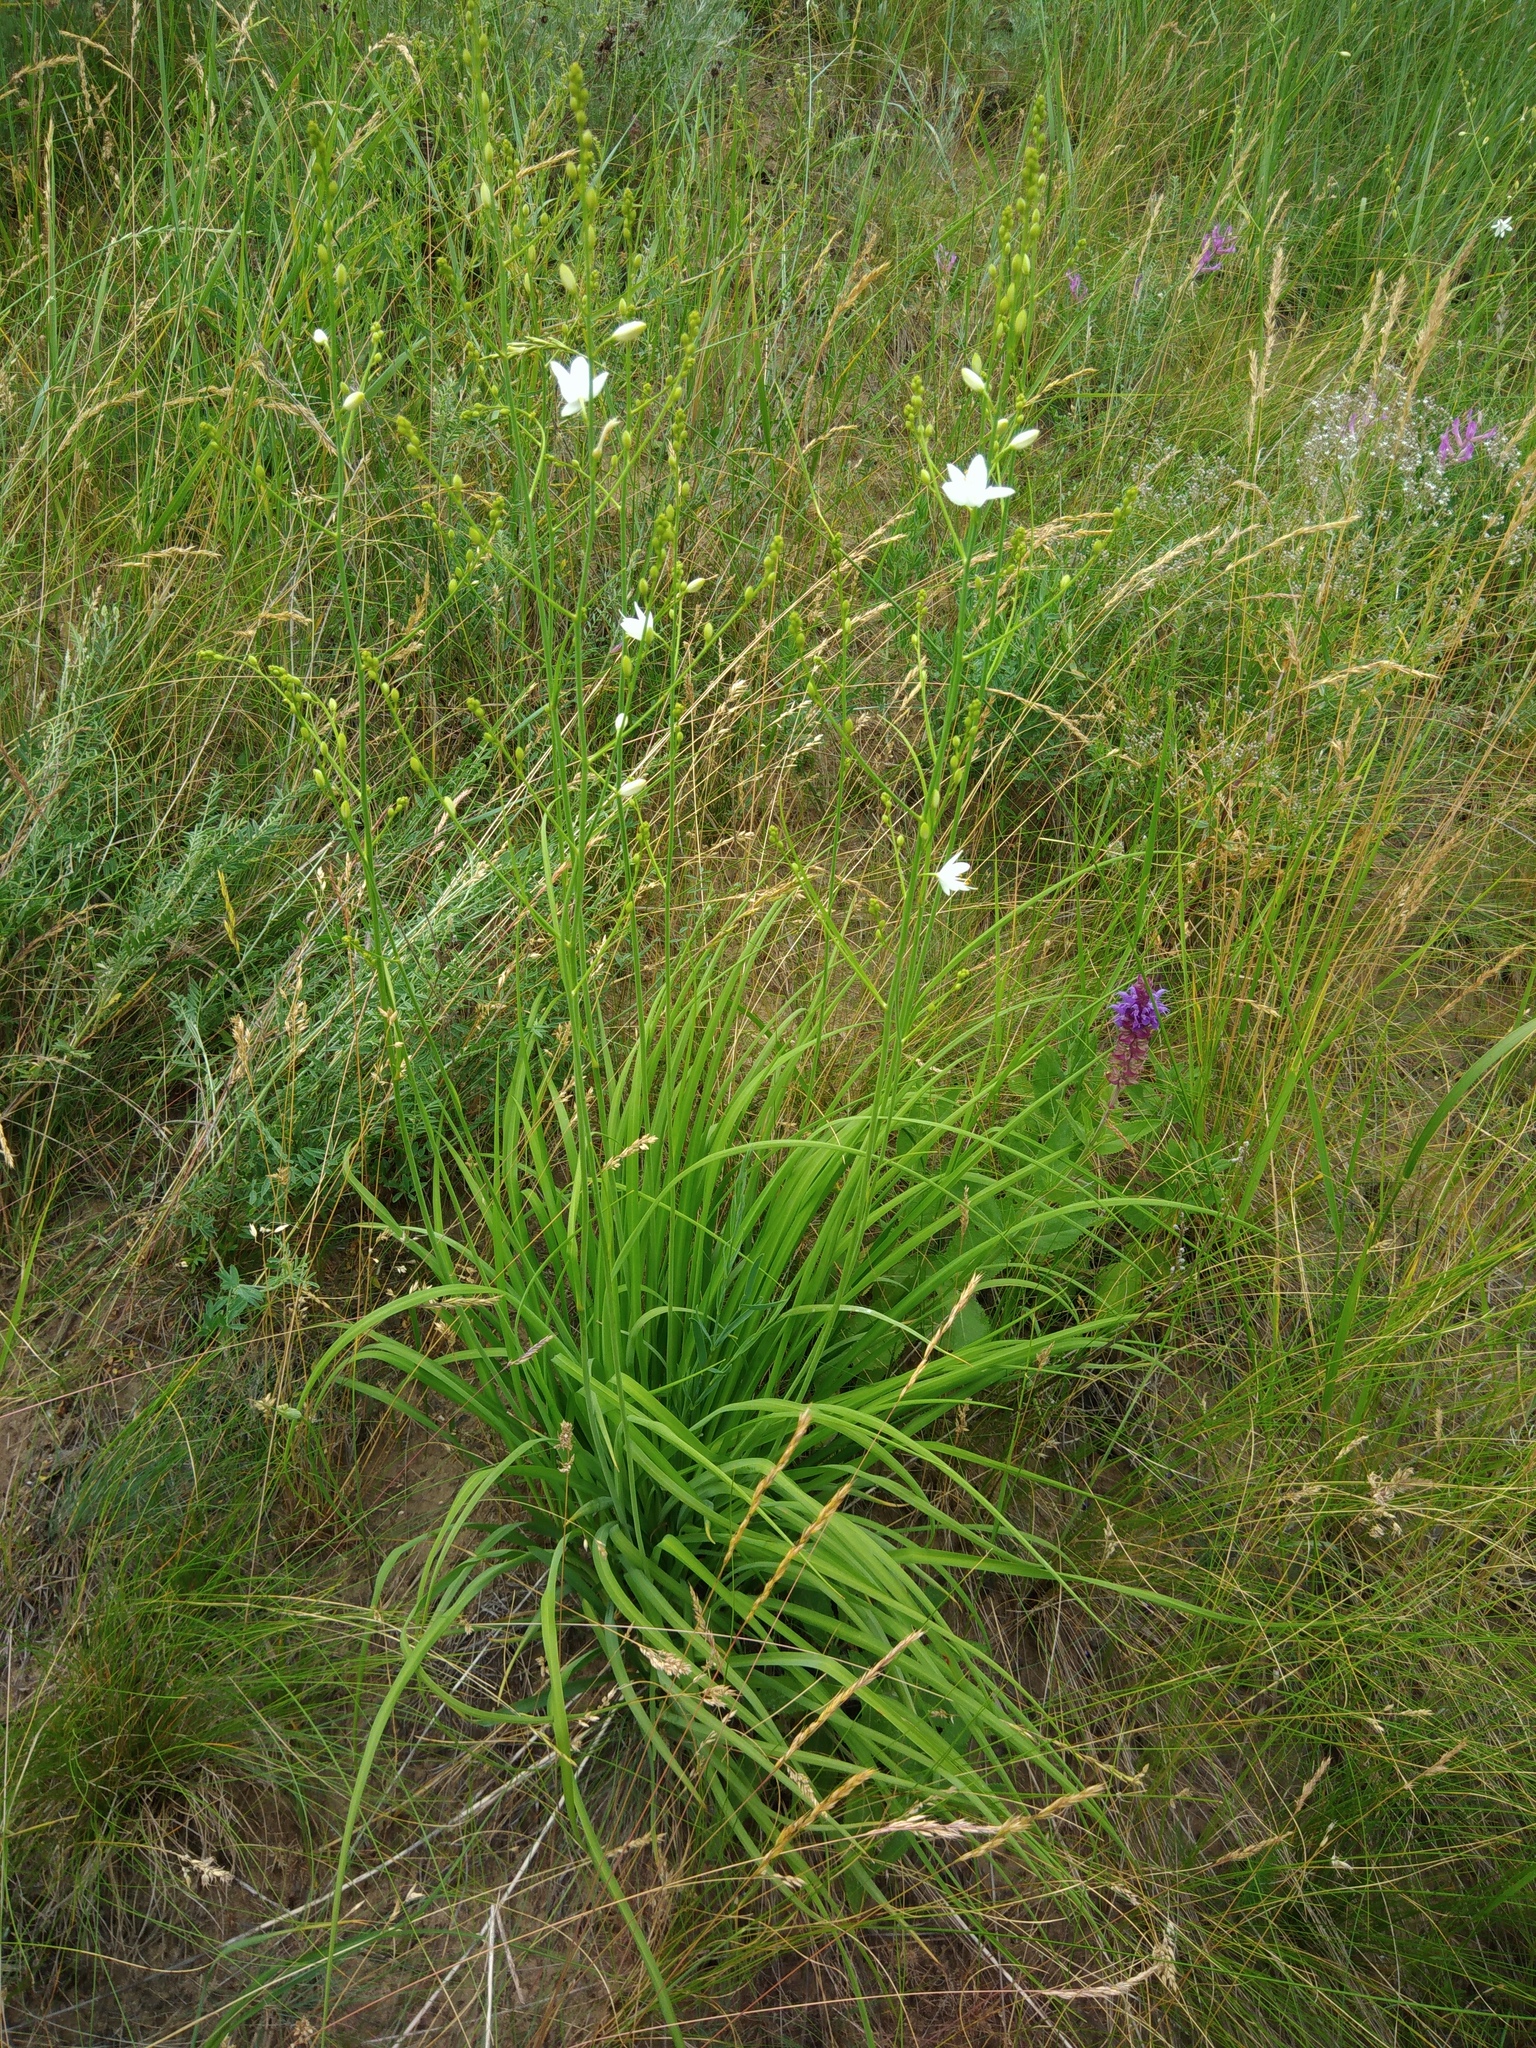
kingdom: Plantae
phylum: Tracheophyta
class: Liliopsida
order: Asparagales
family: Asparagaceae
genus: Anthericum
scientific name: Anthericum ramosum
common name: Branched st. bernard's-lily
